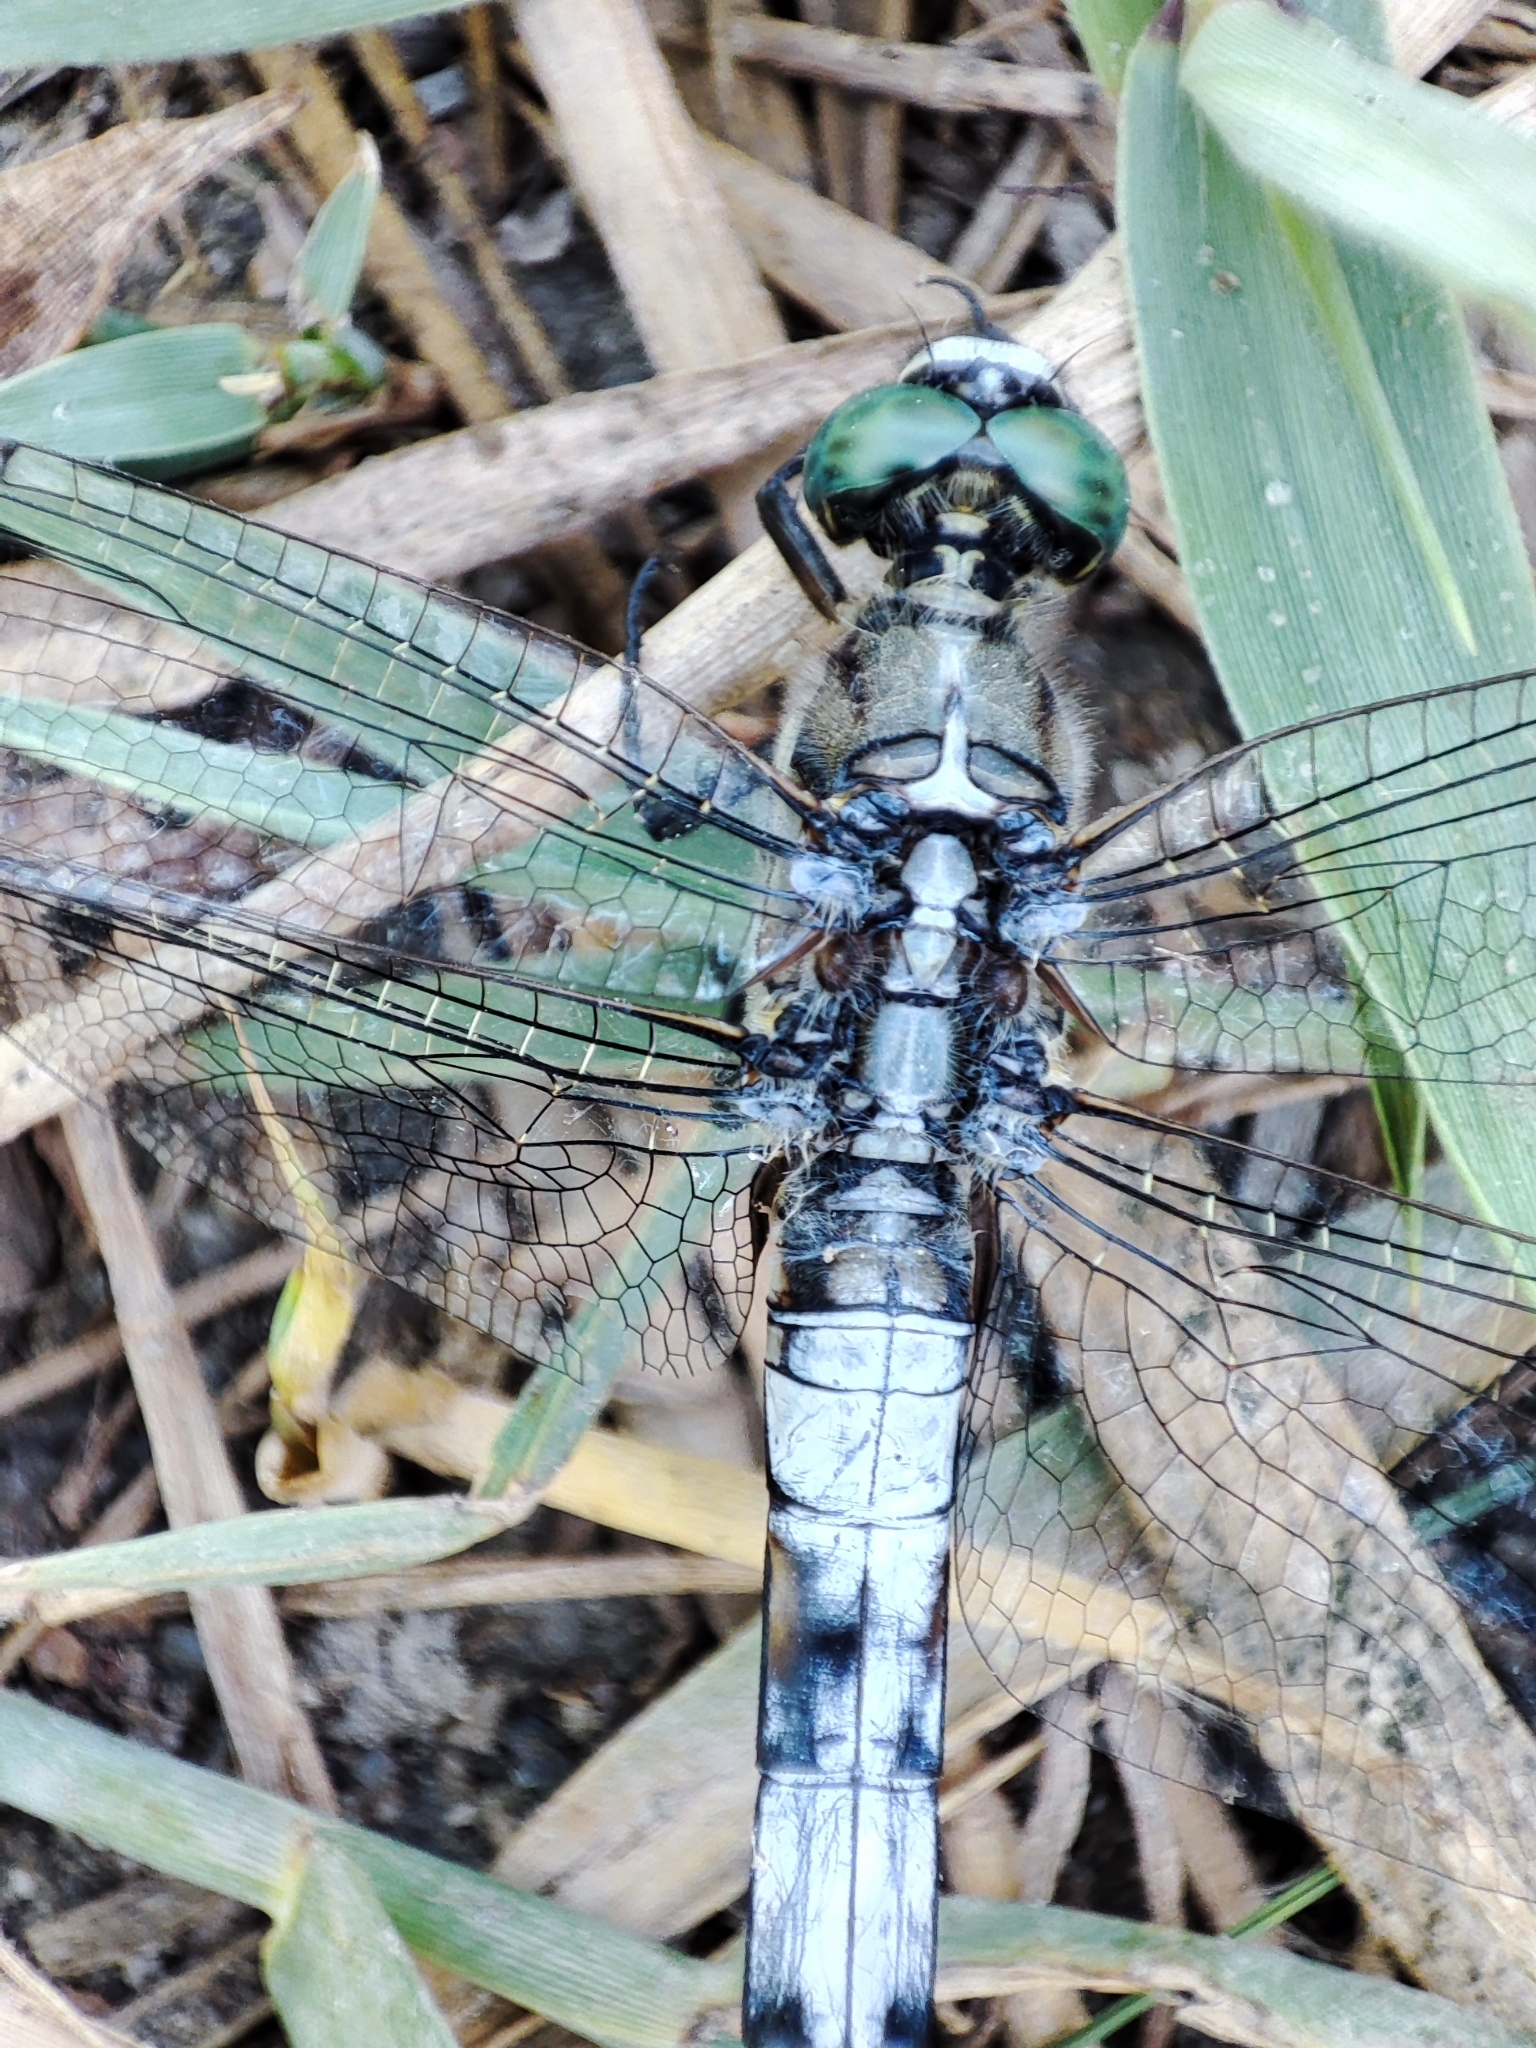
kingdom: Animalia
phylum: Arthropoda
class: Insecta
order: Odonata
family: Libellulidae
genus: Orthetrum
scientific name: Orthetrum albistylum
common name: White-tailed skimmer
